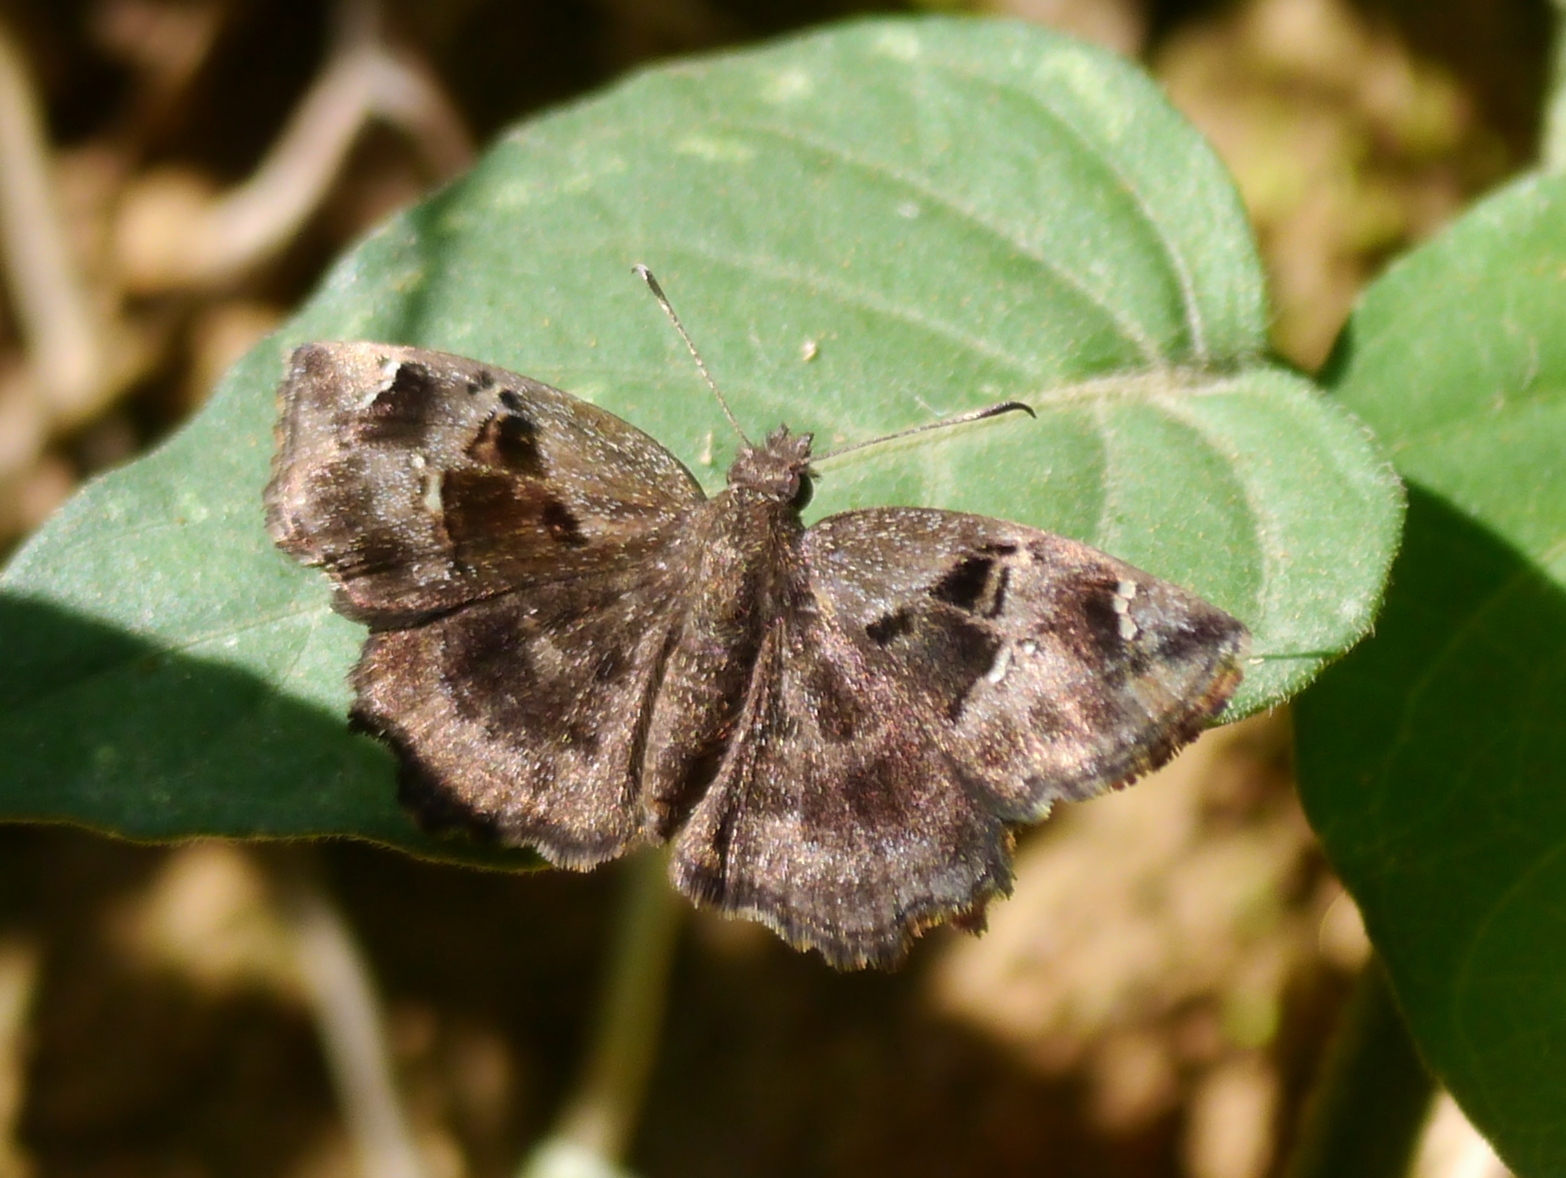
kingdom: Animalia
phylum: Arthropoda
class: Insecta
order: Lepidoptera
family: Hesperiidae
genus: Eretis
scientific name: Eretis lugens
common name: Savanna elf
